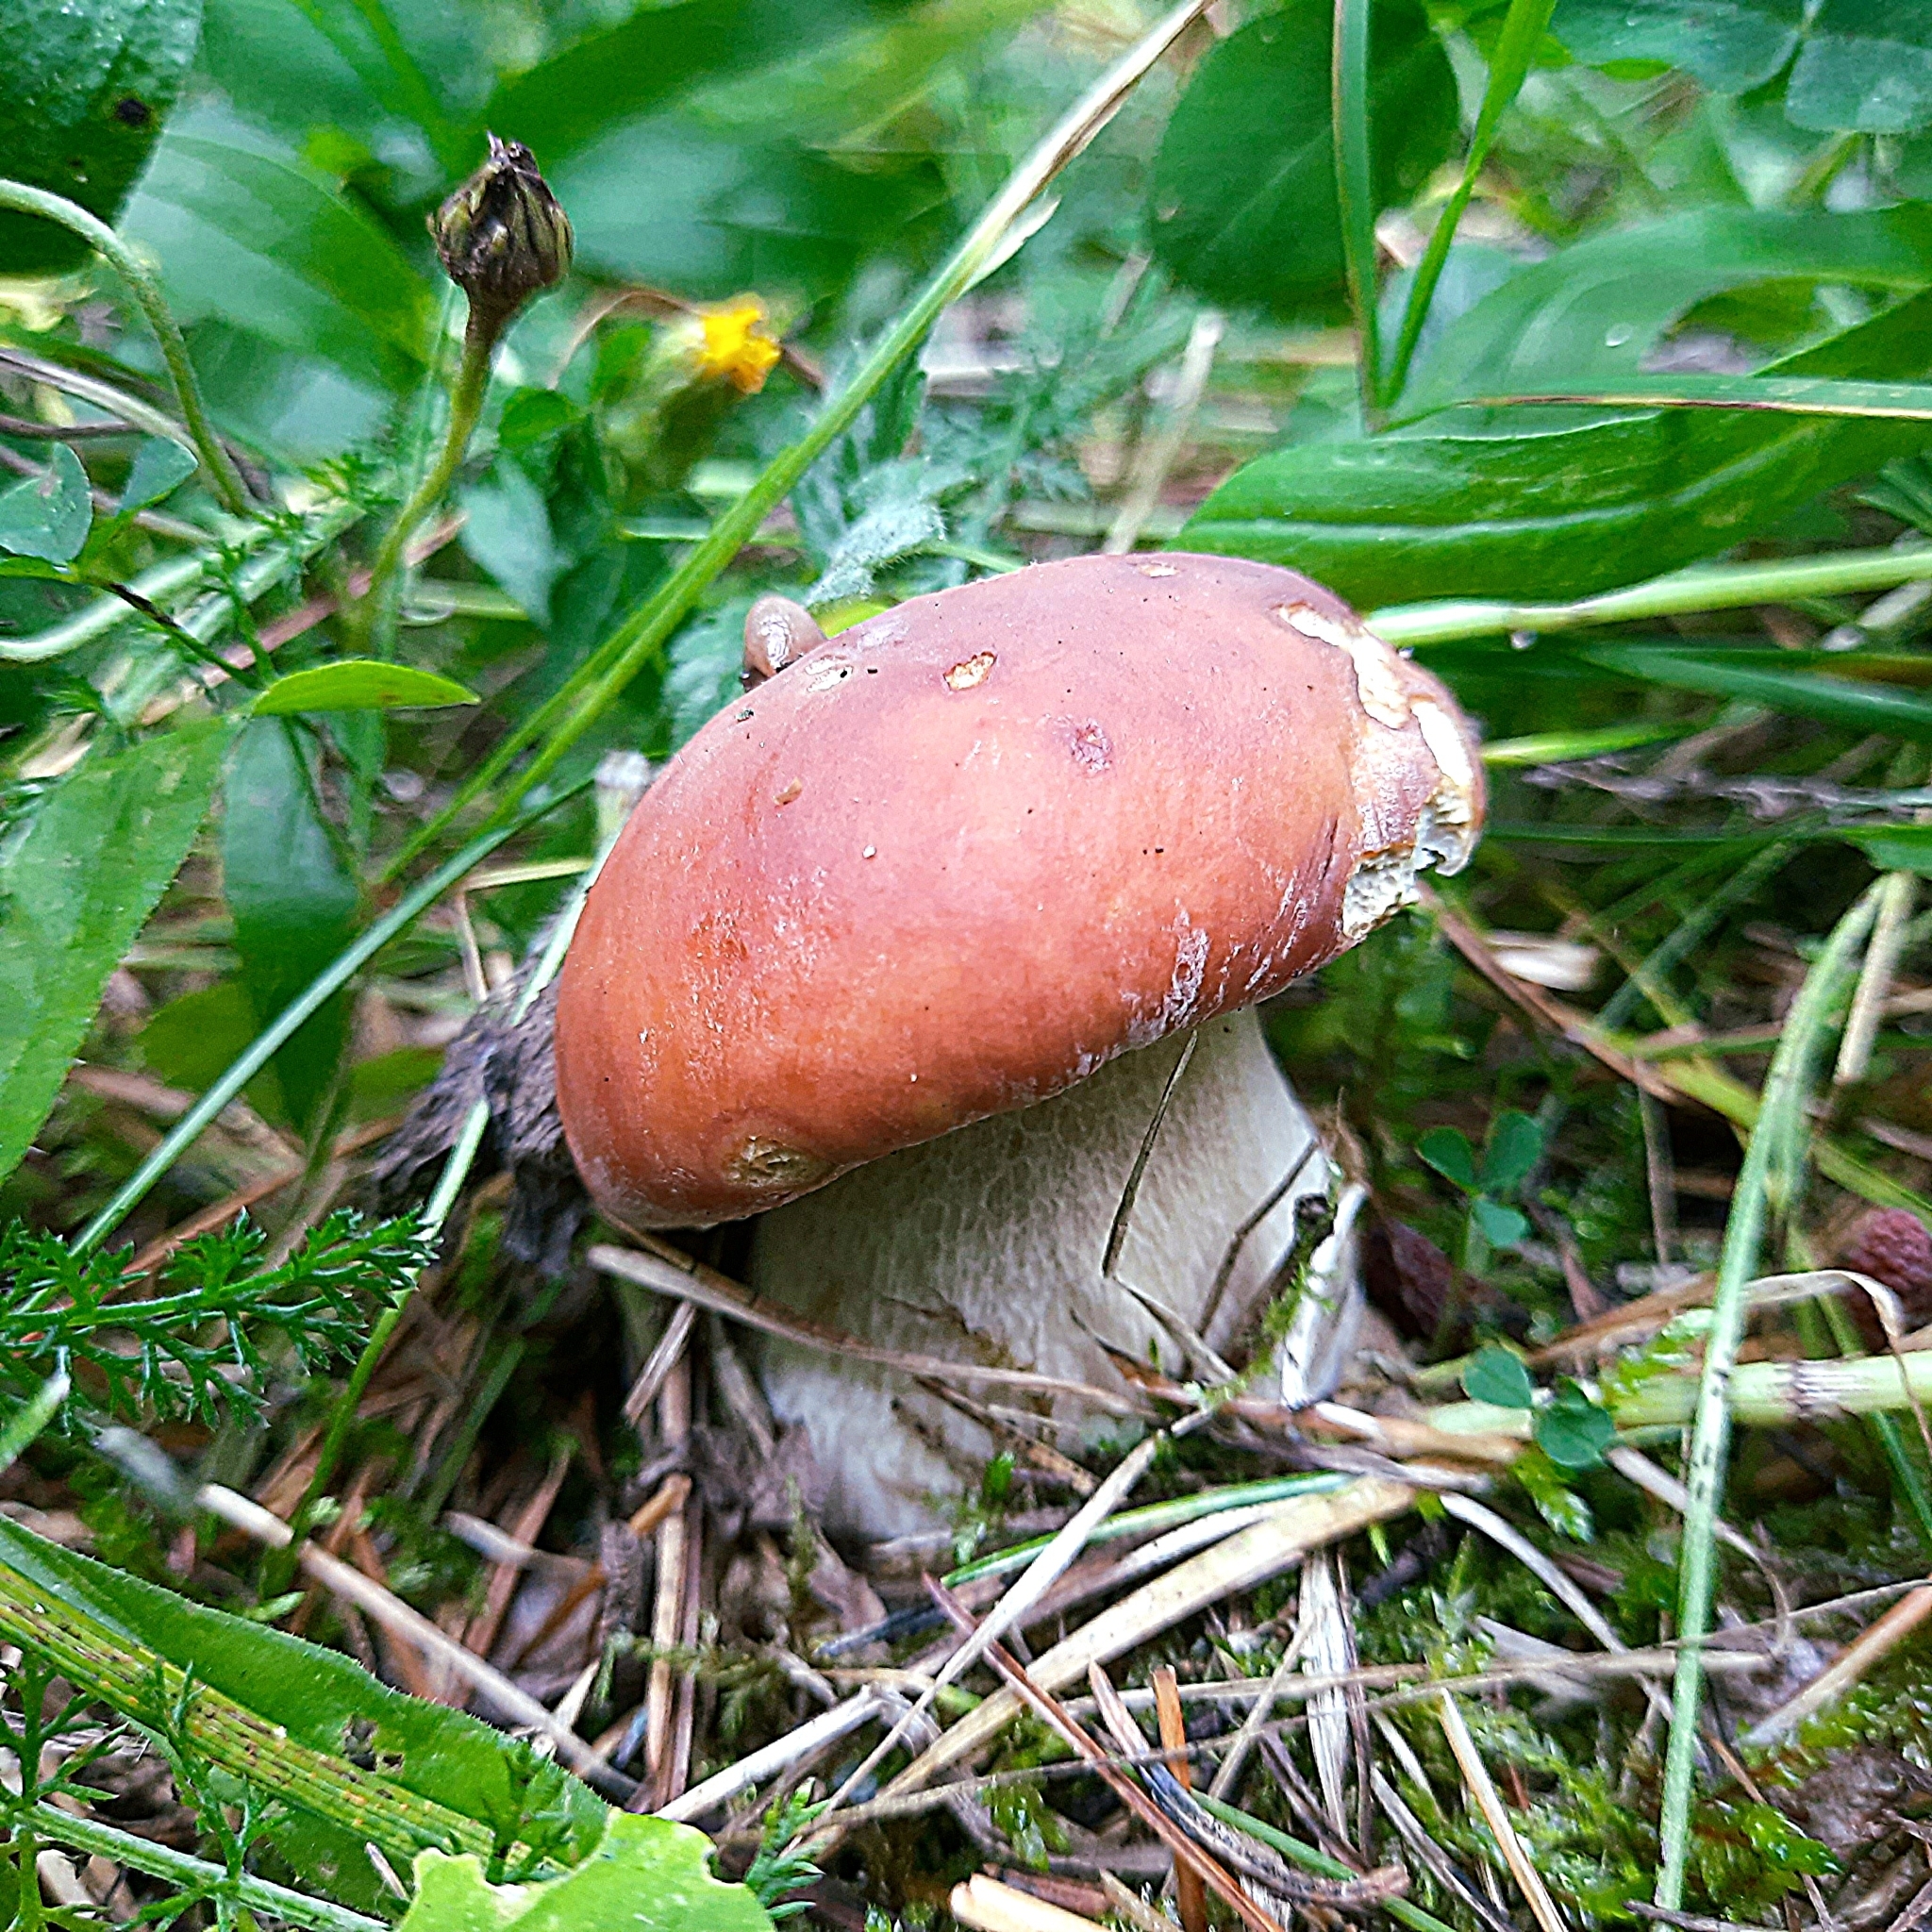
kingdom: Fungi
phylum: Basidiomycota
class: Agaricomycetes
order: Boletales
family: Boletaceae
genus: Boletus
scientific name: Boletus edulis
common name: Cep
